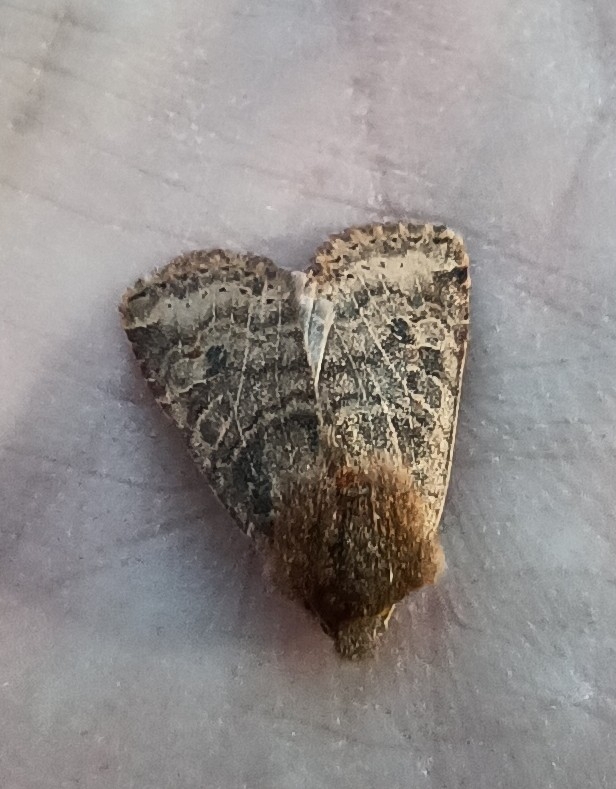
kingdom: Animalia
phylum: Arthropoda
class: Insecta
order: Lepidoptera
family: Noctuidae
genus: Conistra
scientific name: Conistra vaccinii
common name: Chestnut
